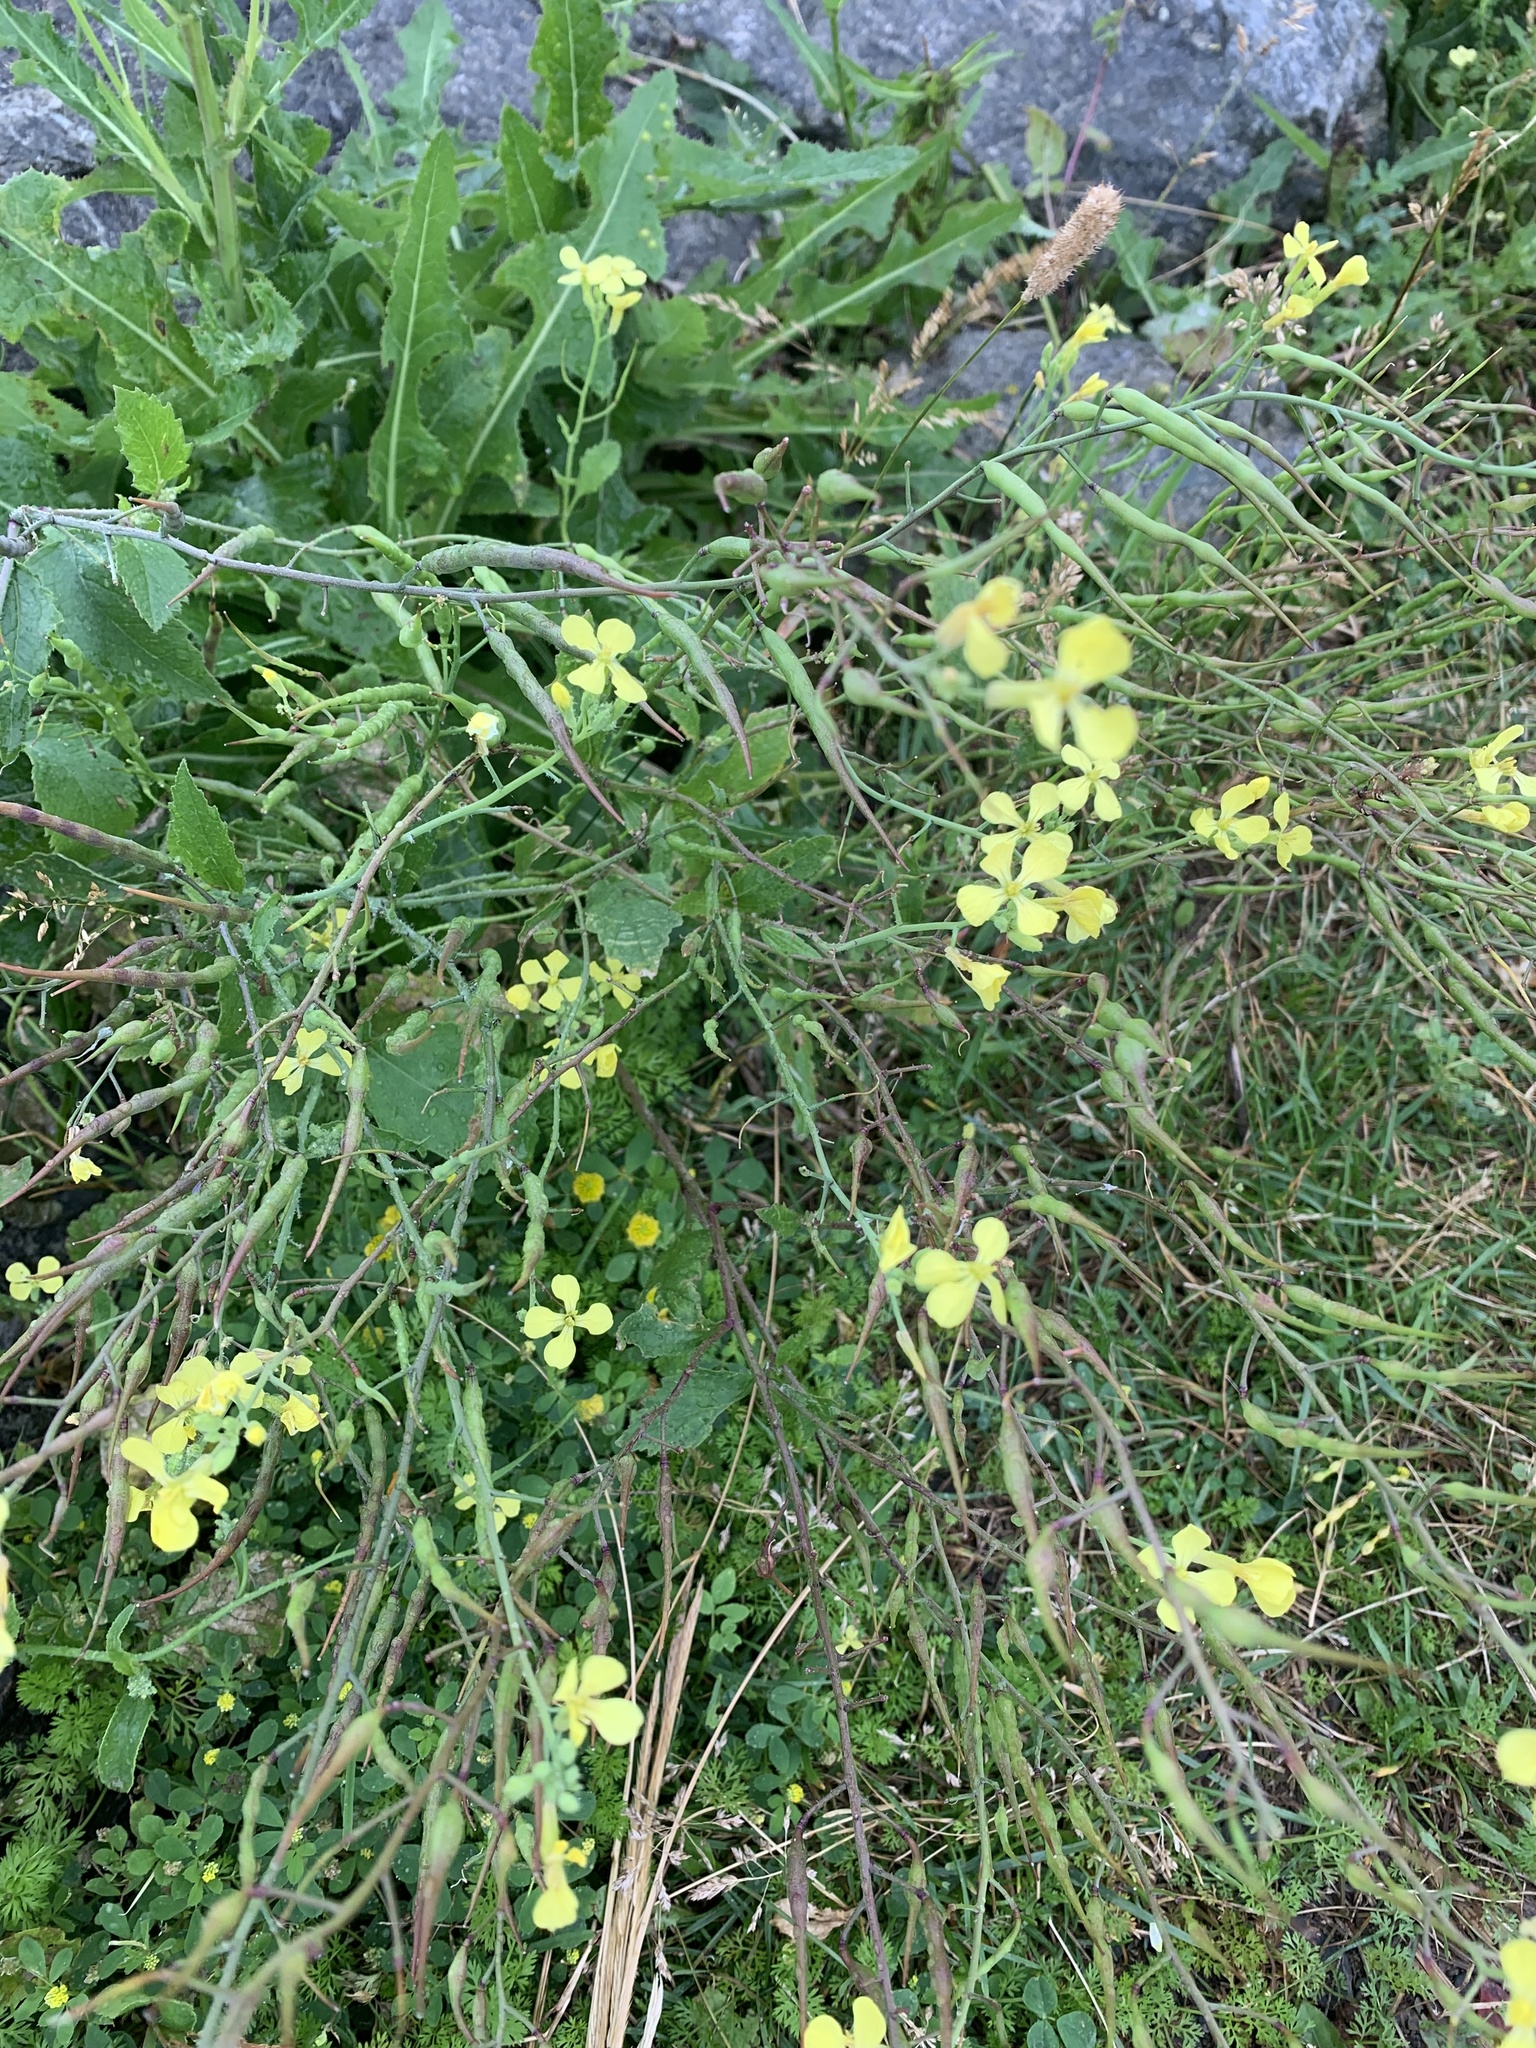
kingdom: Plantae
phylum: Tracheophyta
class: Magnoliopsida
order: Brassicales
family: Brassicaceae
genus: Raphanus
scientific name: Raphanus raphanistrum
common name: Wild radish
